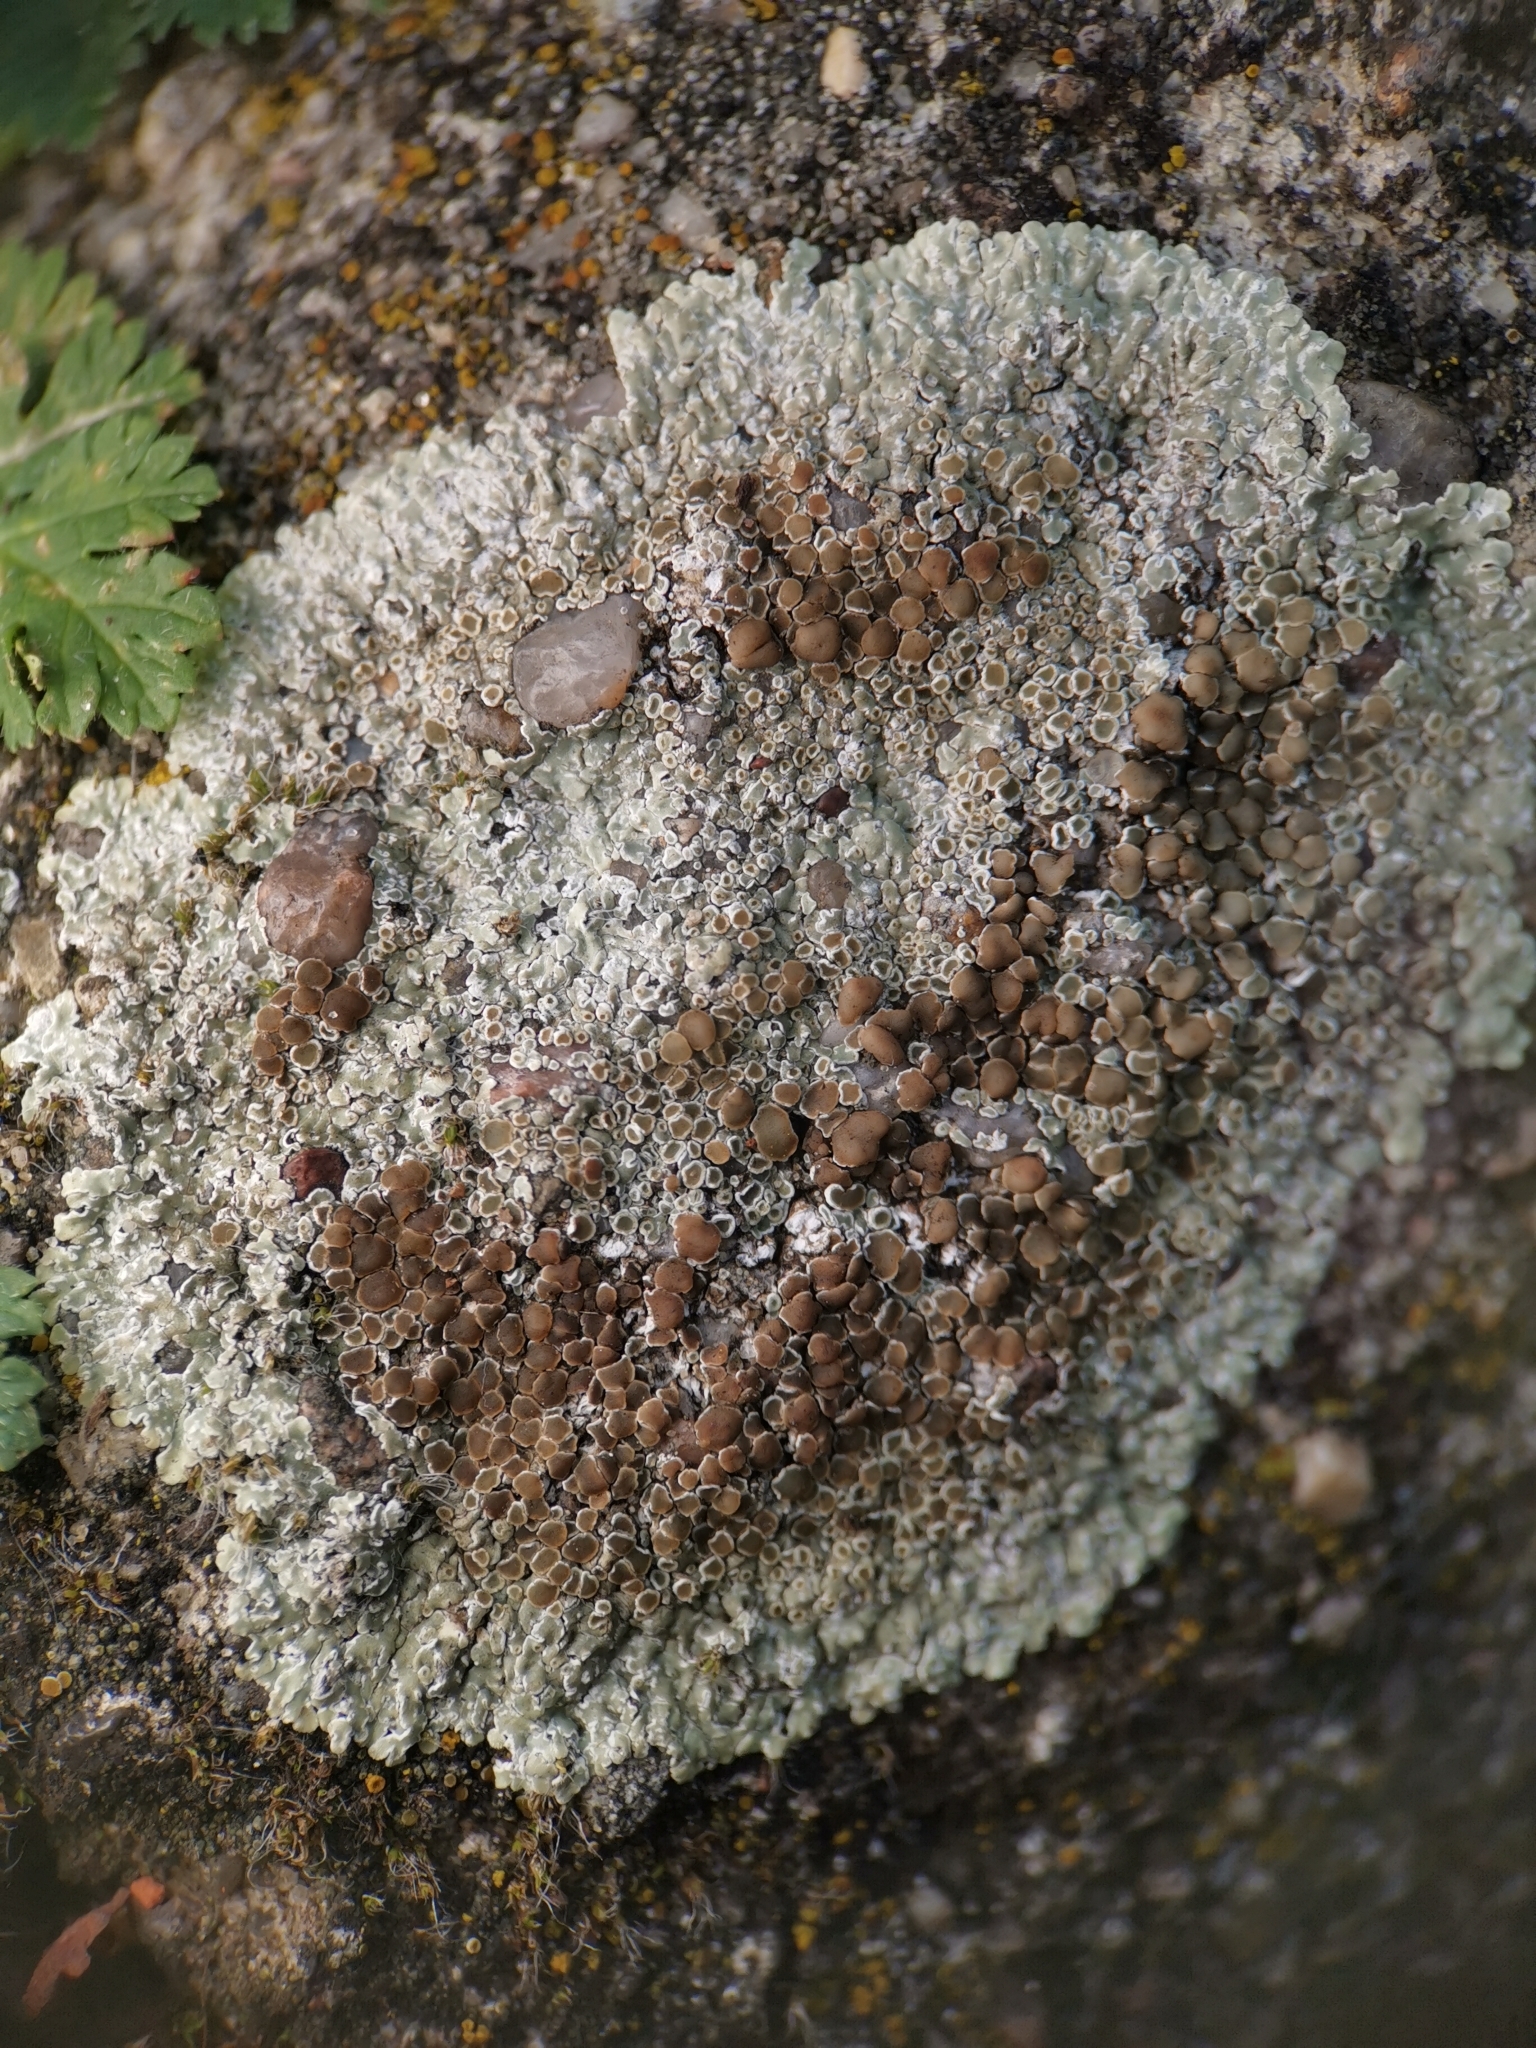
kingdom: Fungi
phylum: Ascomycota
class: Lecanoromycetes
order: Lecanorales
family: Lecanoraceae
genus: Protoparmeliopsis
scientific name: Protoparmeliopsis muralis
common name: Stonewall rim lichen
